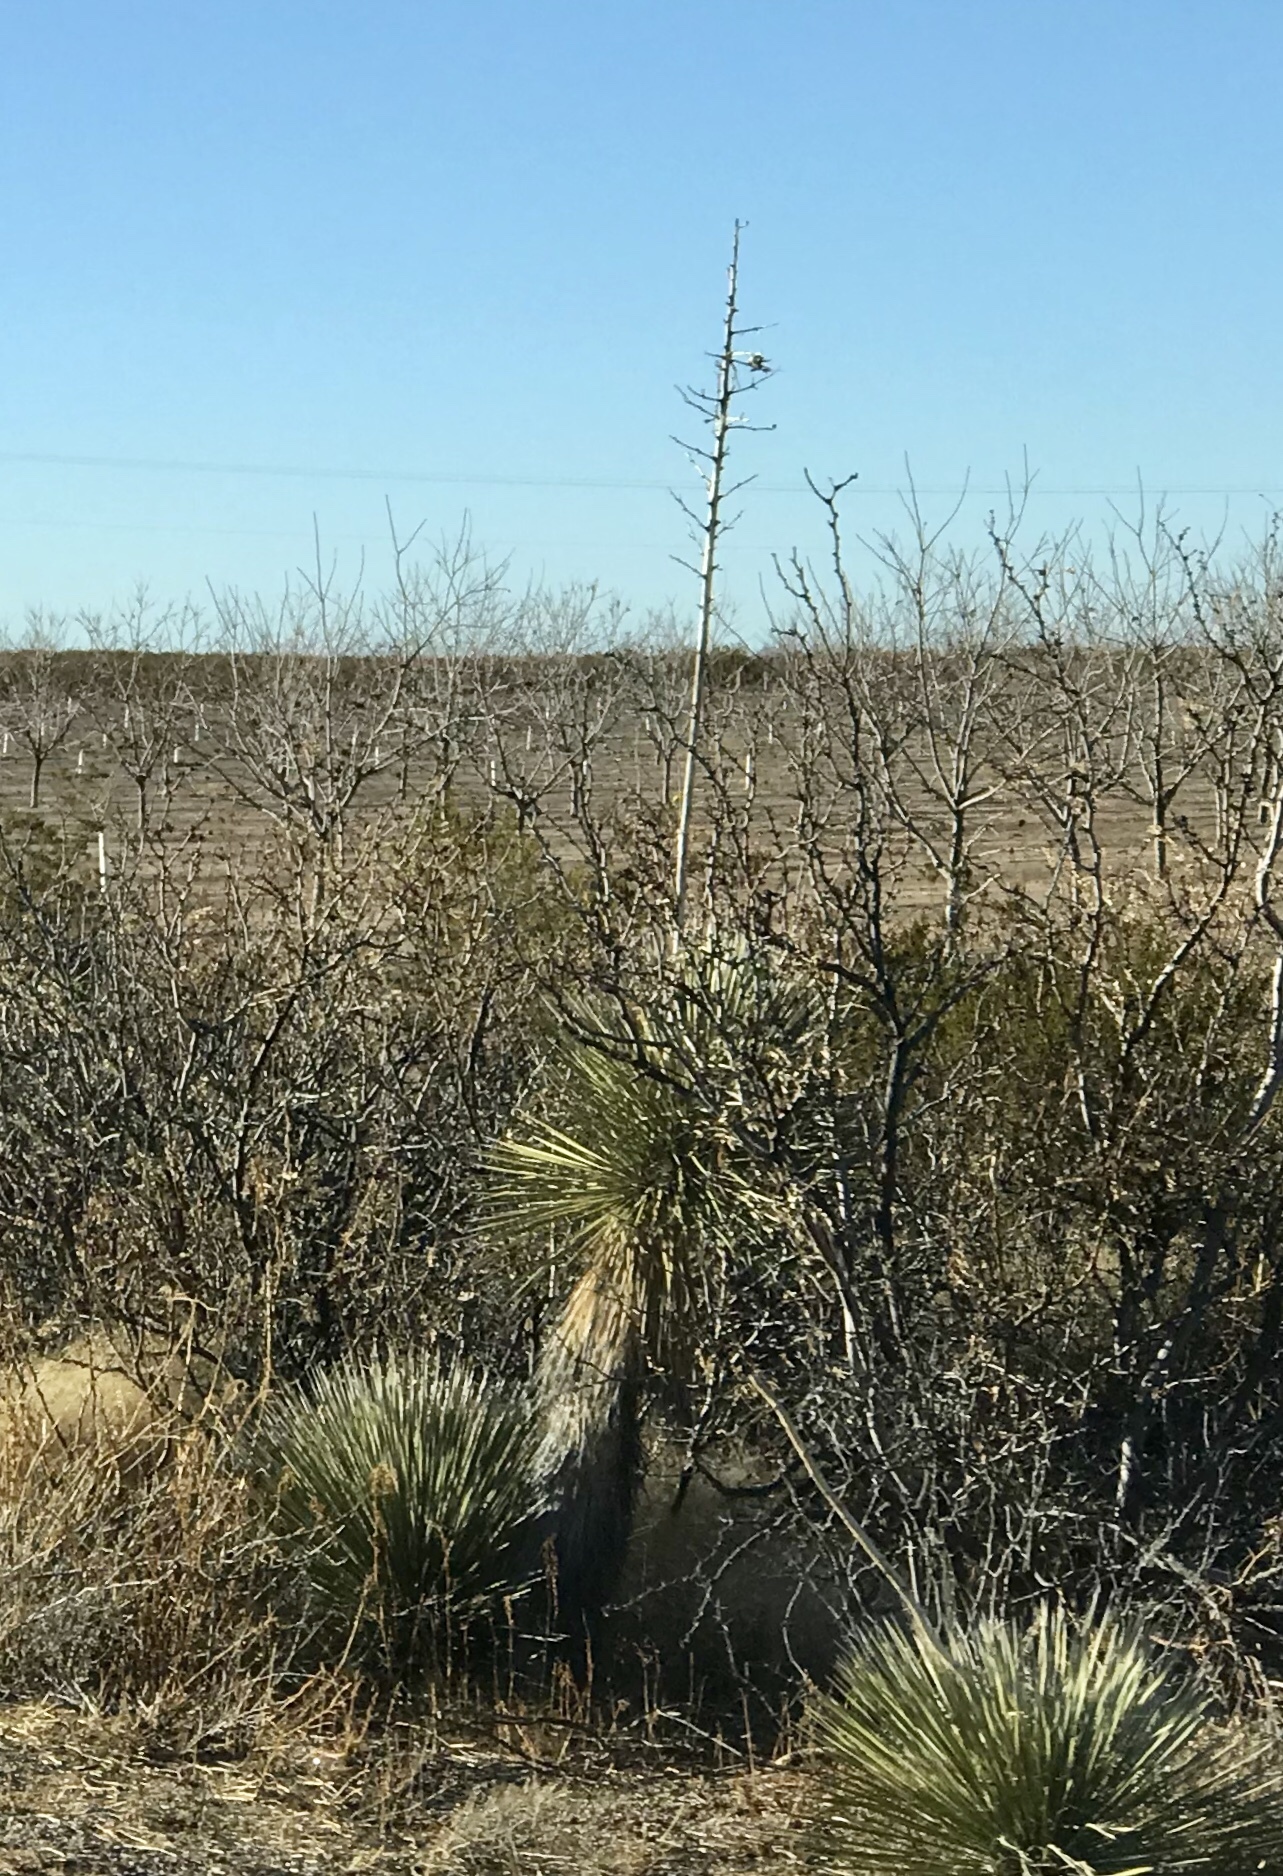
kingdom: Plantae
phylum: Tracheophyta
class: Liliopsida
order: Asparagales
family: Asparagaceae
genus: Yucca
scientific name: Yucca elata
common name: Palmella
